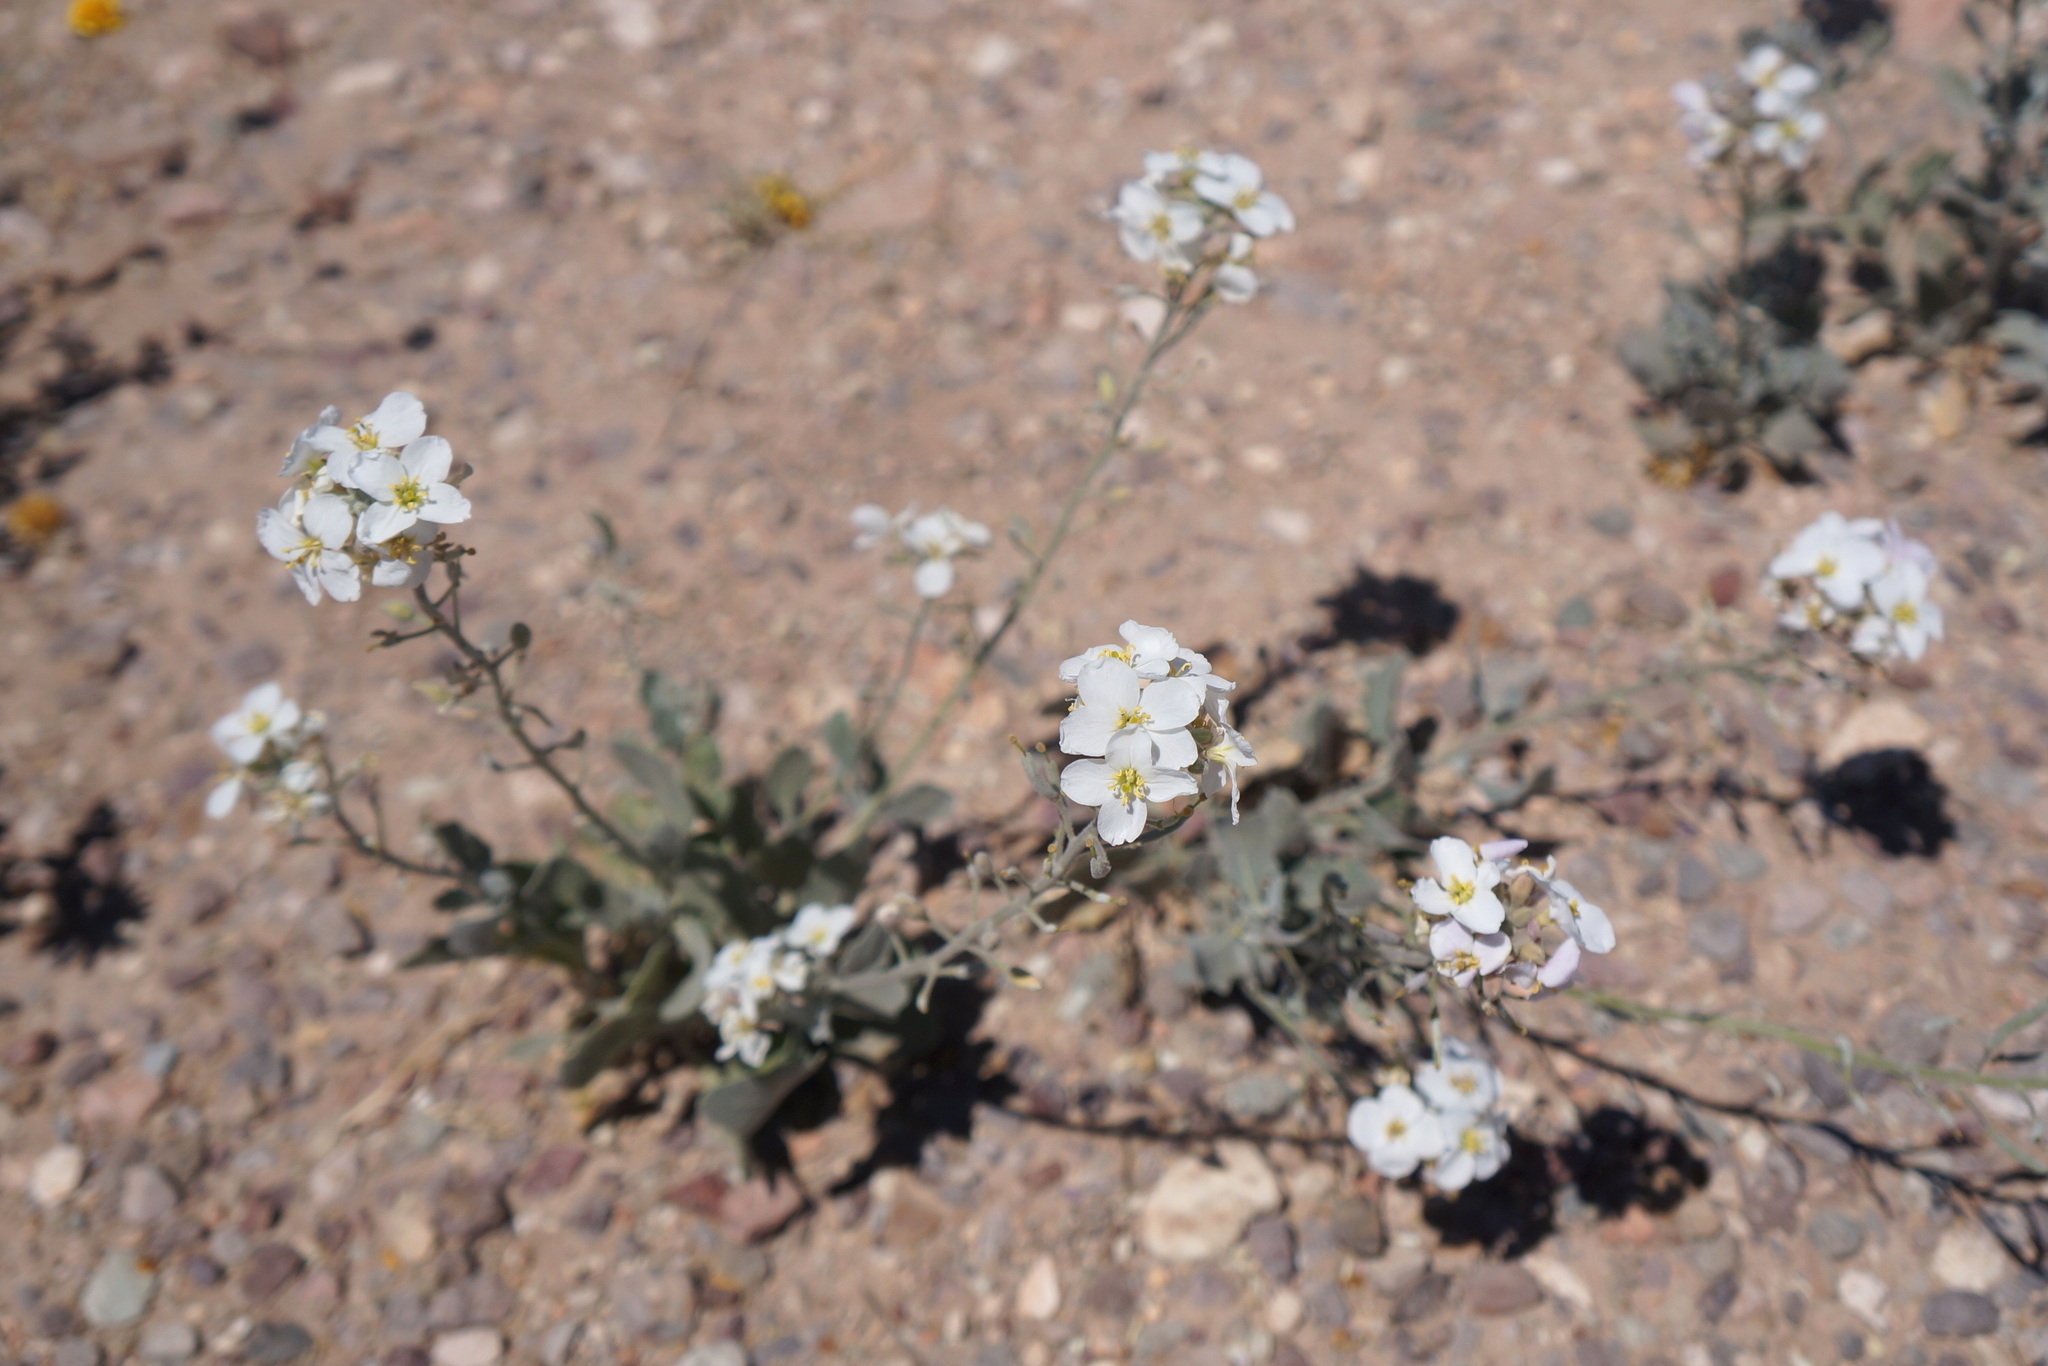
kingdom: Plantae
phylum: Tracheophyta
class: Magnoliopsida
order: Brassicales
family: Brassicaceae
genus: Nerisyrenia
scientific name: Nerisyrenia camporum
